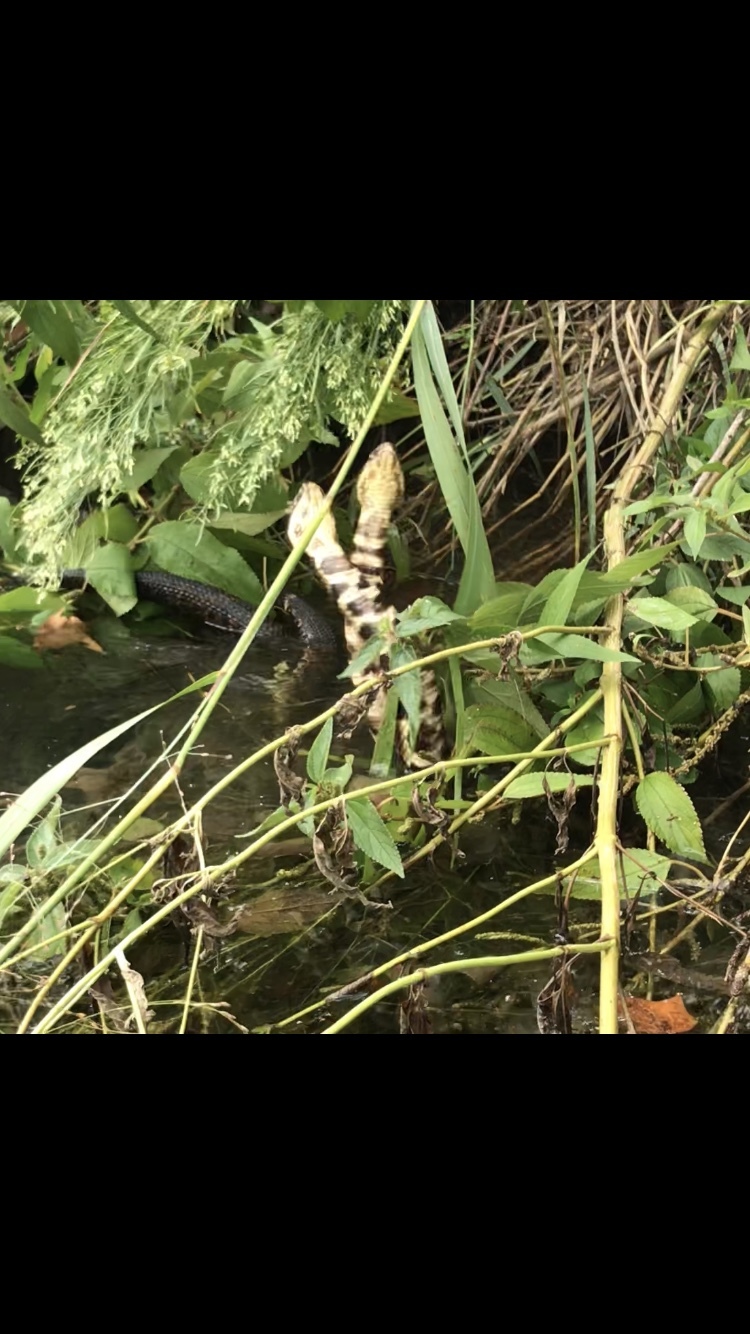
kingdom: Animalia
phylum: Chordata
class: Squamata
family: Viperidae
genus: Agkistrodon
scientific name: Agkistrodon piscivorus
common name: Cottonmouth
